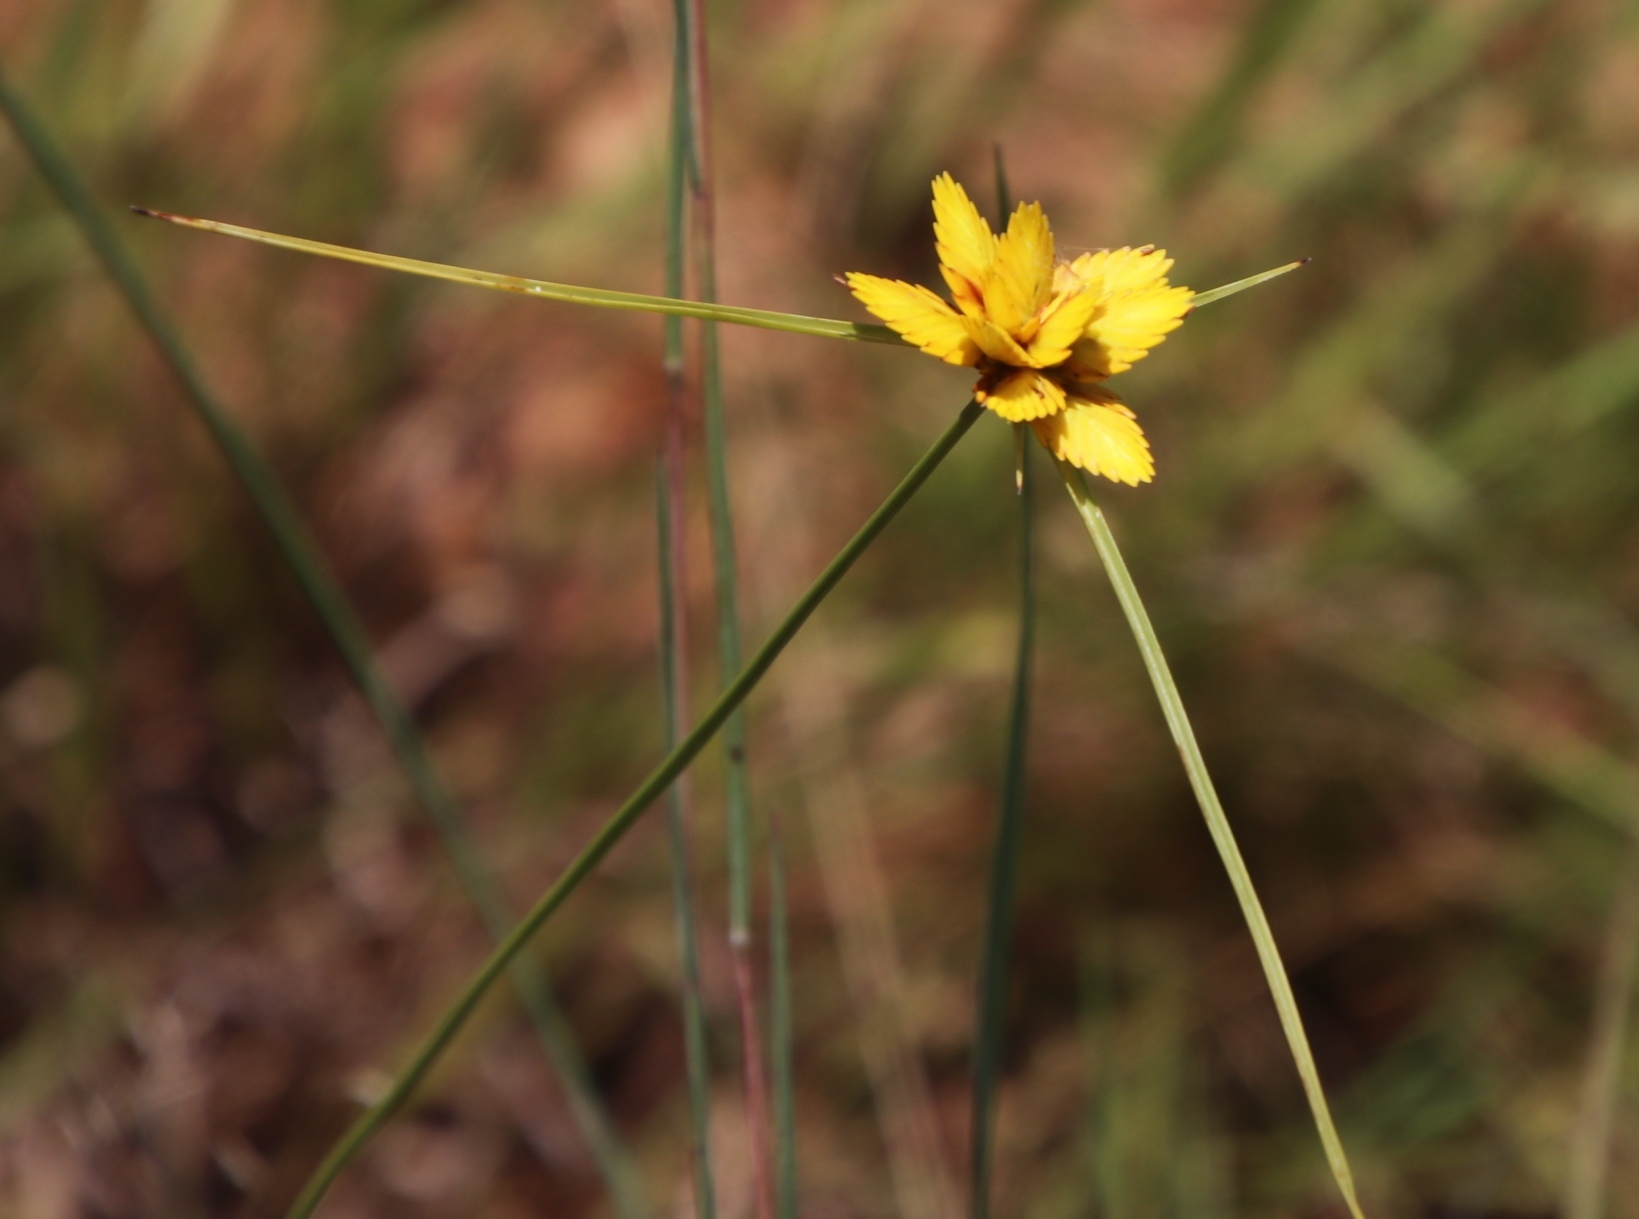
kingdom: Plantae
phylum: Tracheophyta
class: Liliopsida
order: Poales
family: Cyperaceae
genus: Cyperus
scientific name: Cyperus sphaerocephalus
